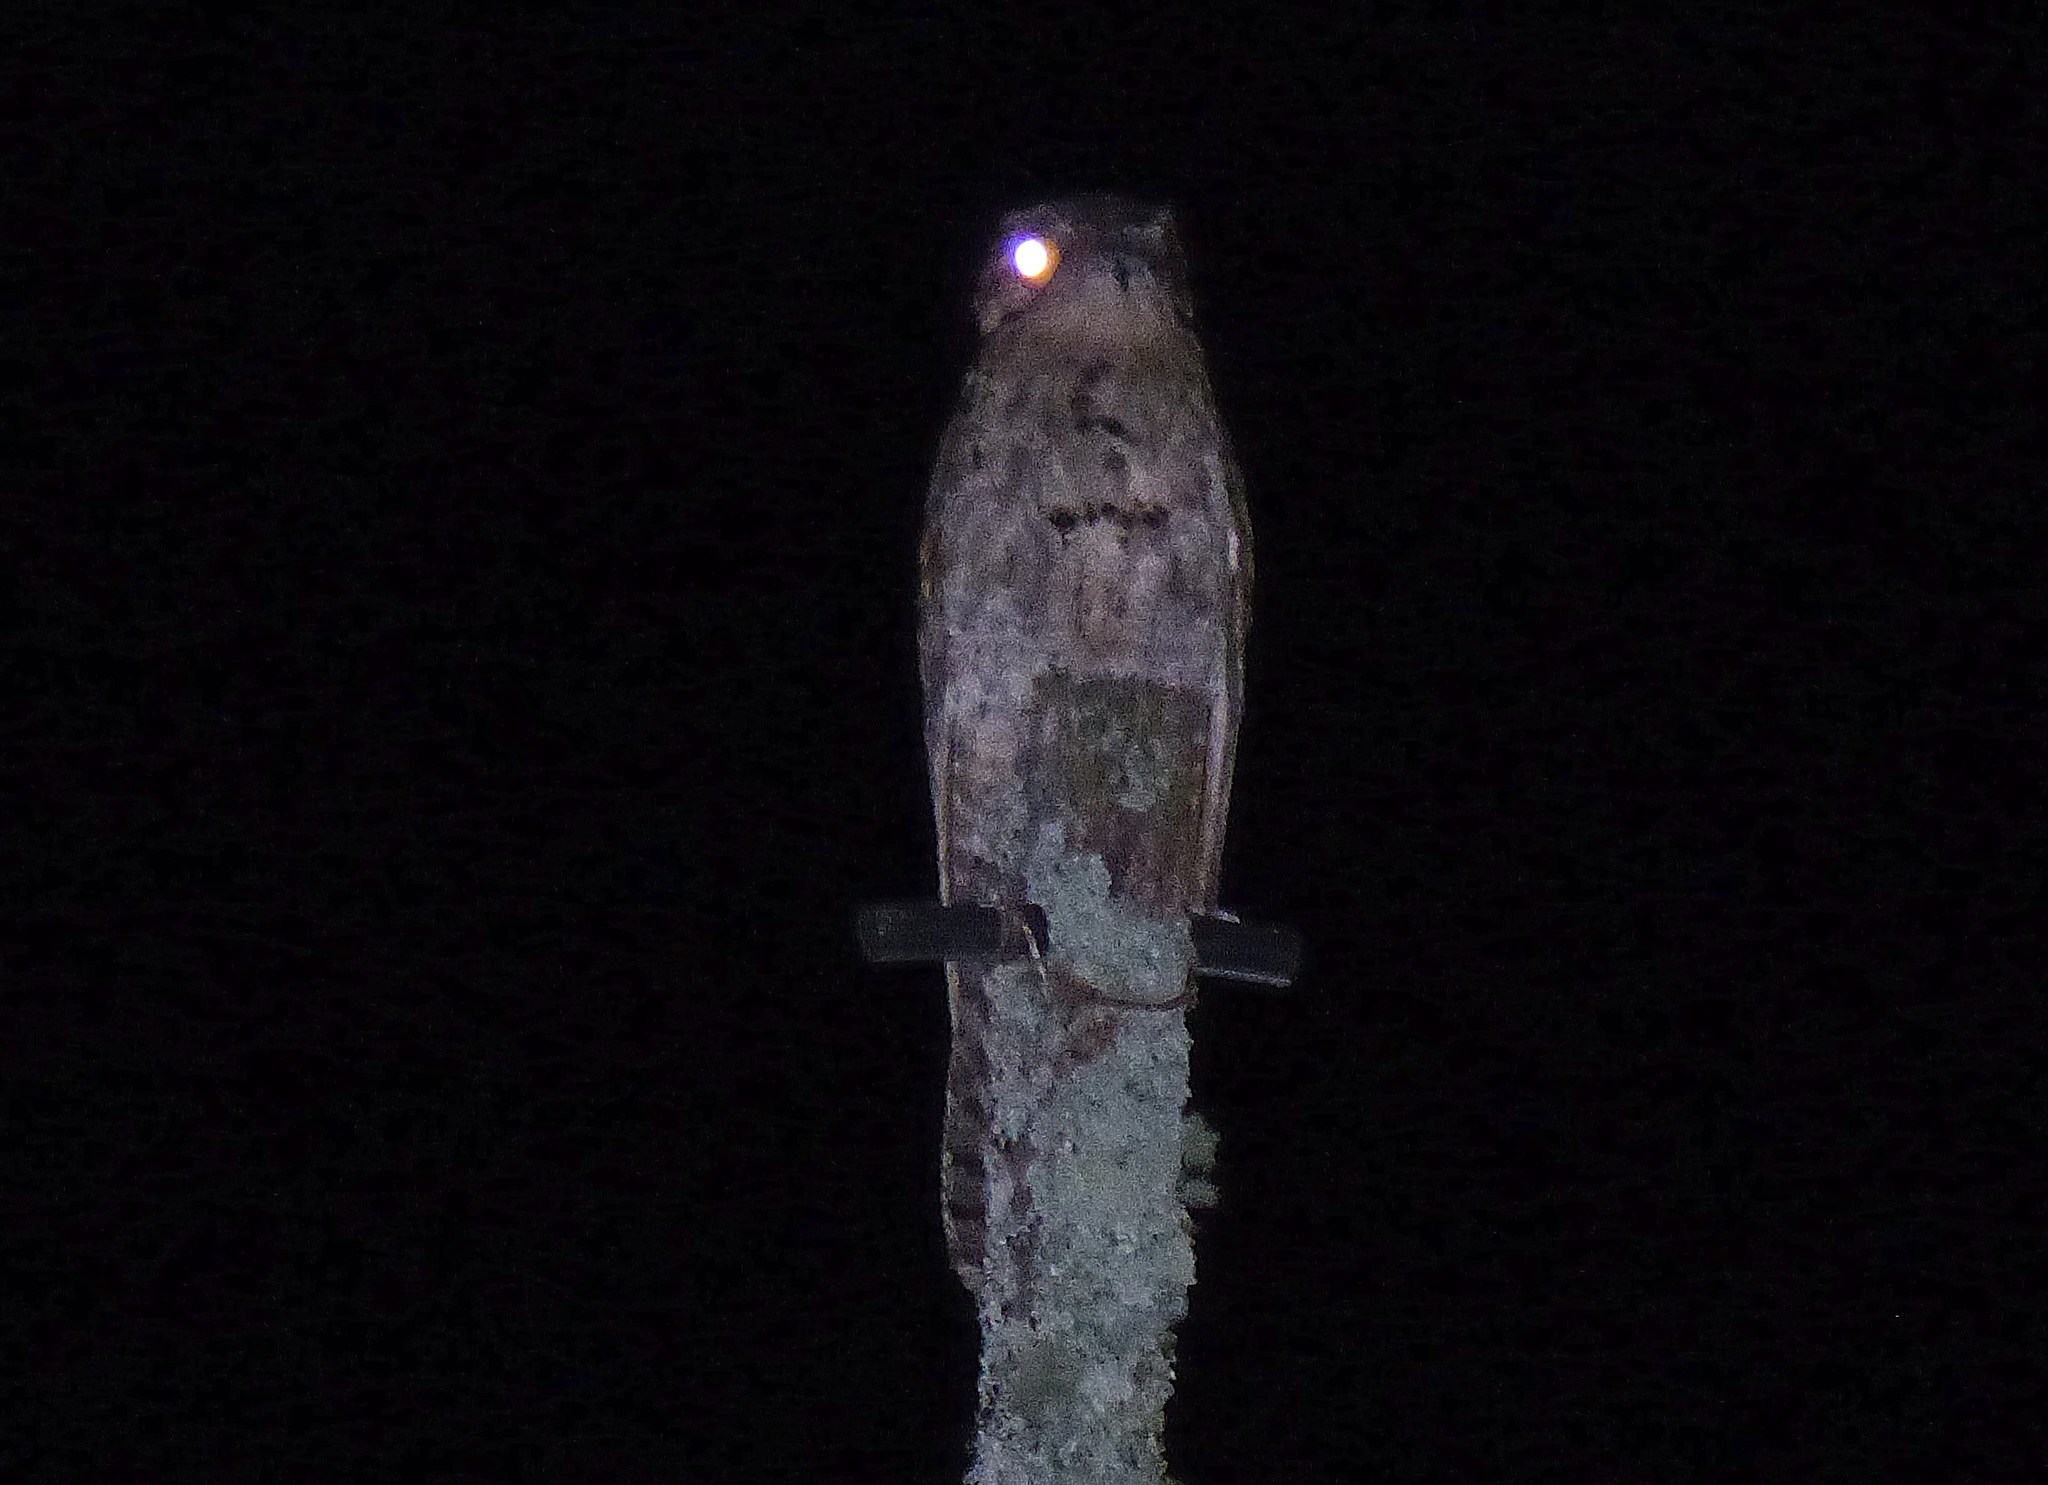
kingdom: Animalia
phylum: Chordata
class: Aves
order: Nyctibiiformes
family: Nyctibiidae
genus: Nyctibius
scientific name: Nyctibius griseus
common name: Common potoo
